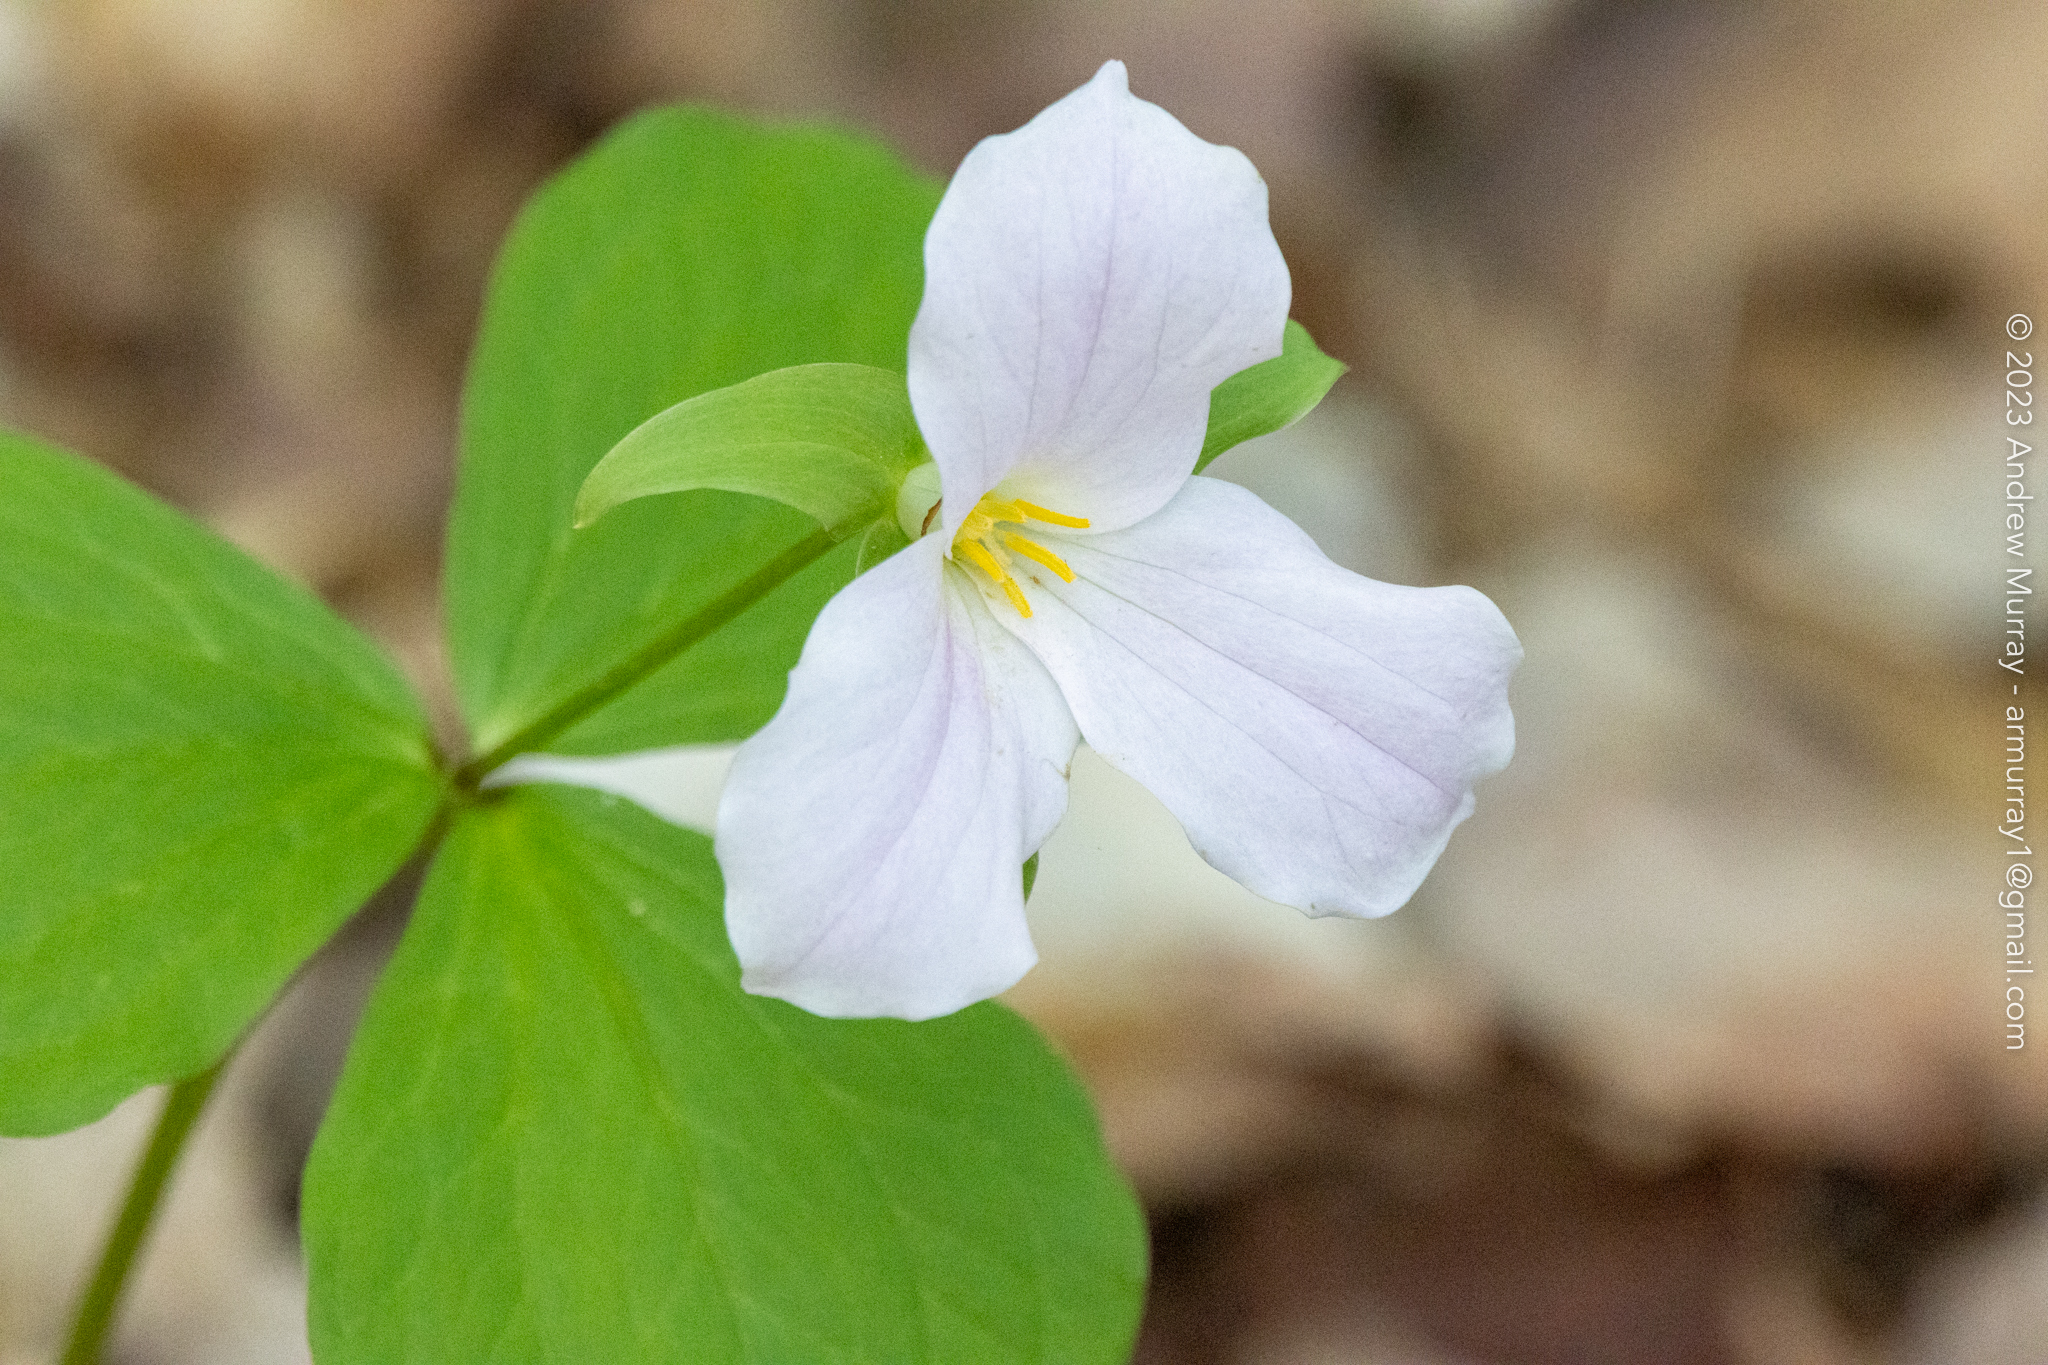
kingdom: Plantae
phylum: Tracheophyta
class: Liliopsida
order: Liliales
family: Melanthiaceae
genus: Trillium
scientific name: Trillium grandiflorum
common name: Great white trillium
